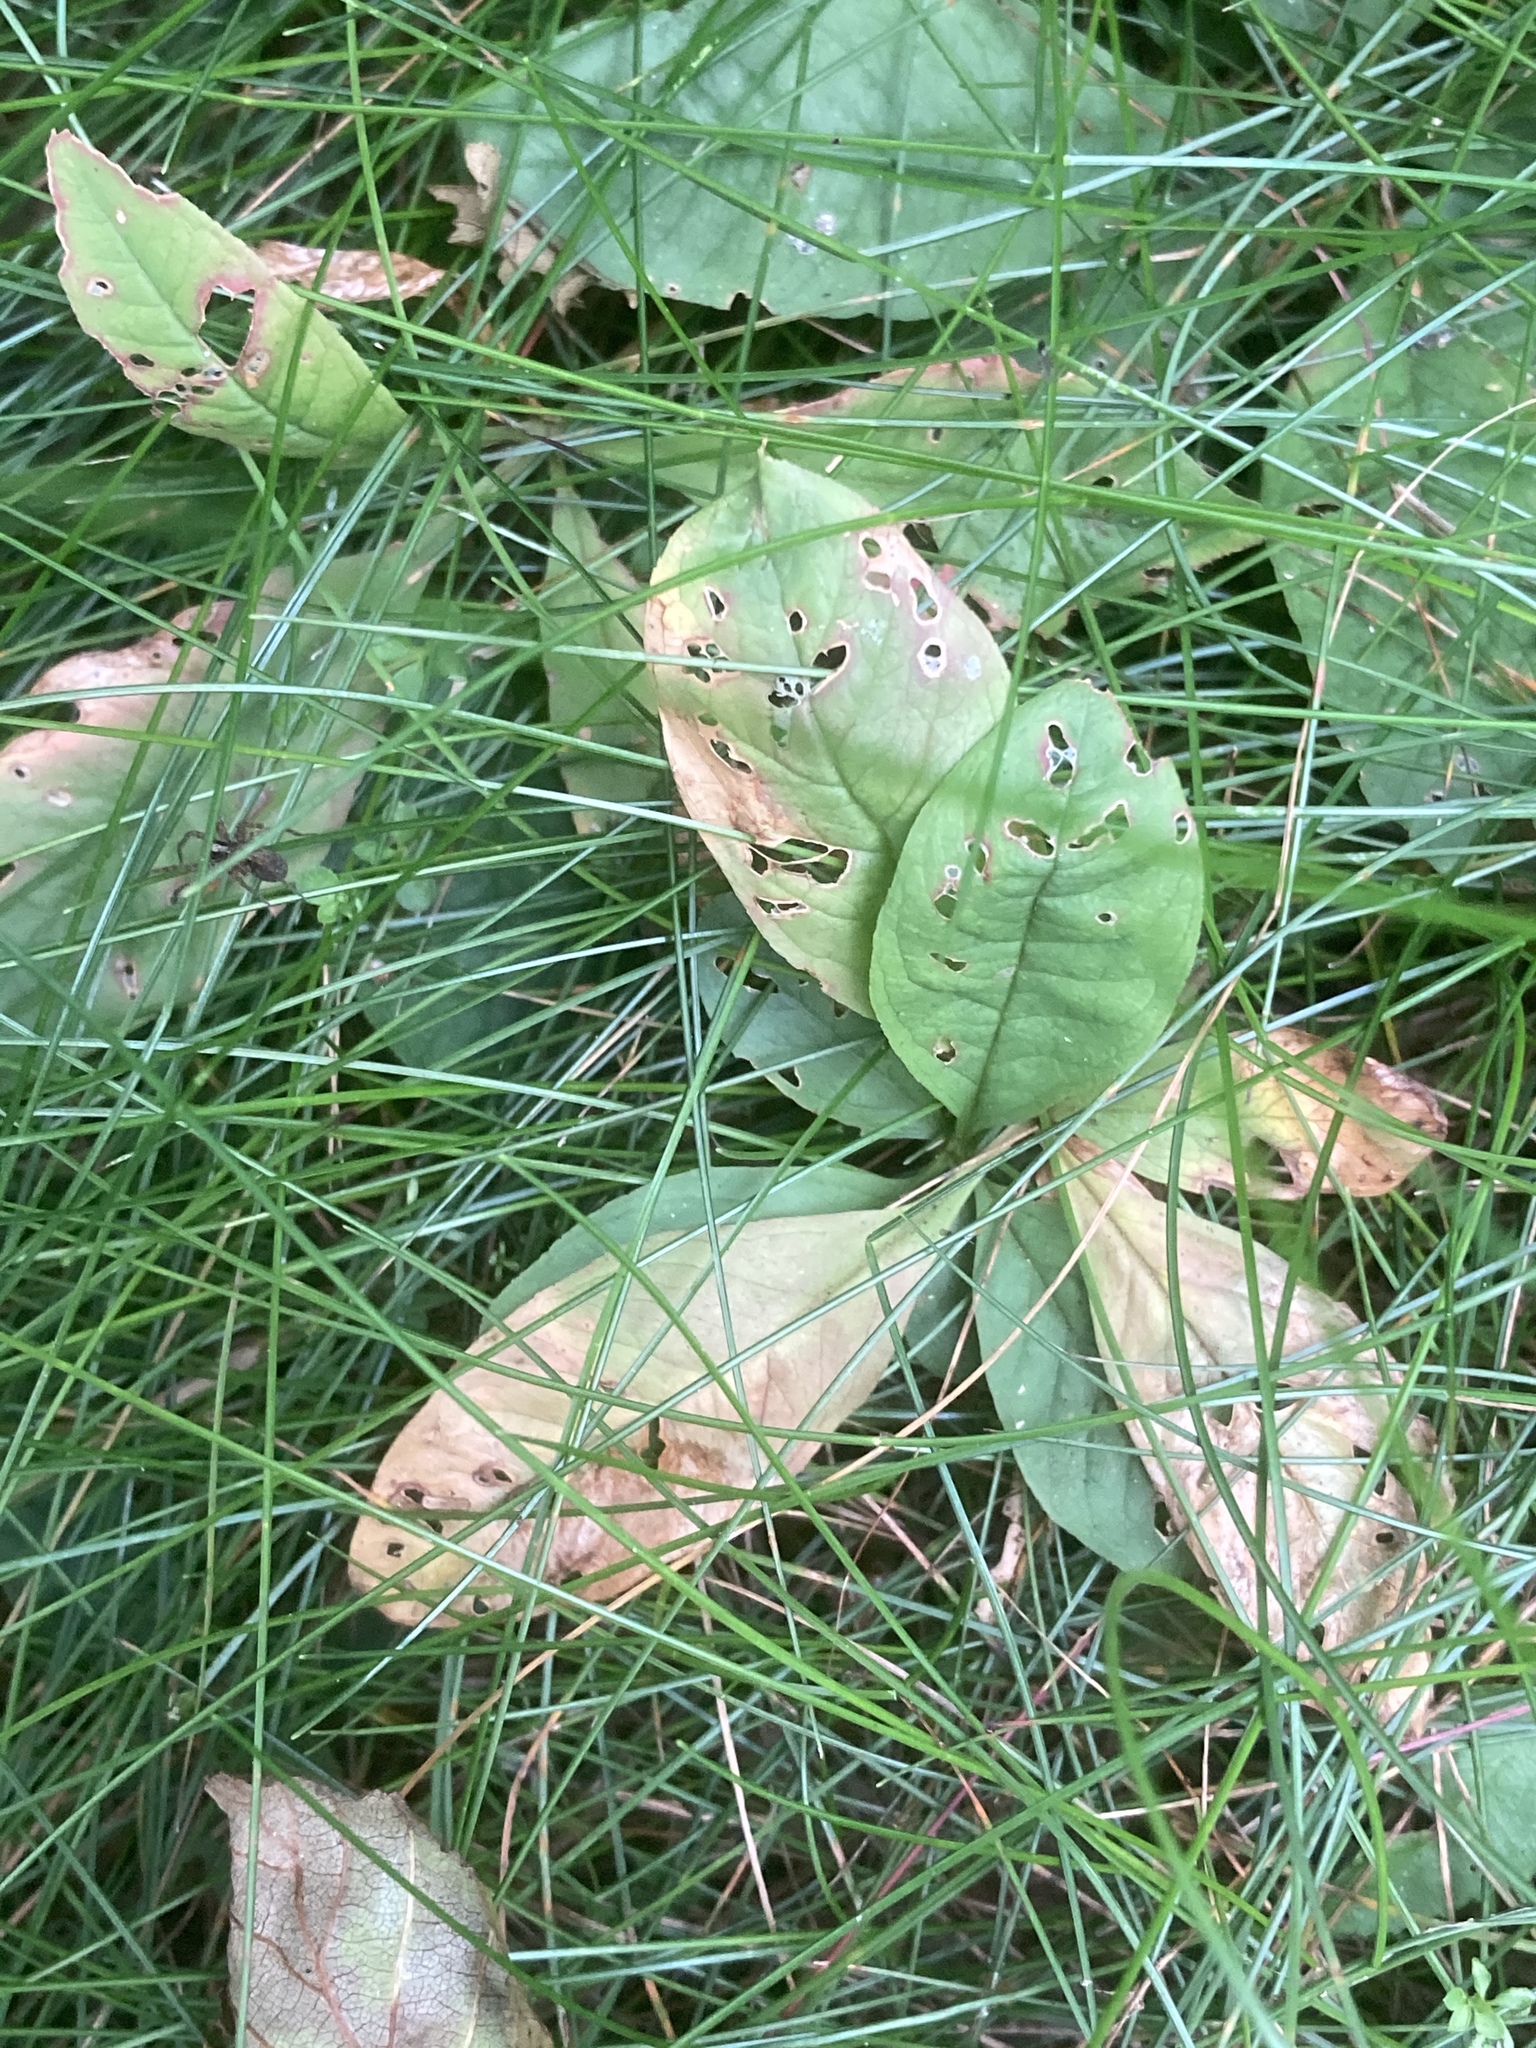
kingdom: Plantae
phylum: Tracheophyta
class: Magnoliopsida
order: Ericales
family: Primulaceae
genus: Lysimachia
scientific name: Lysimachia europaea
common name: Arctic starflower
